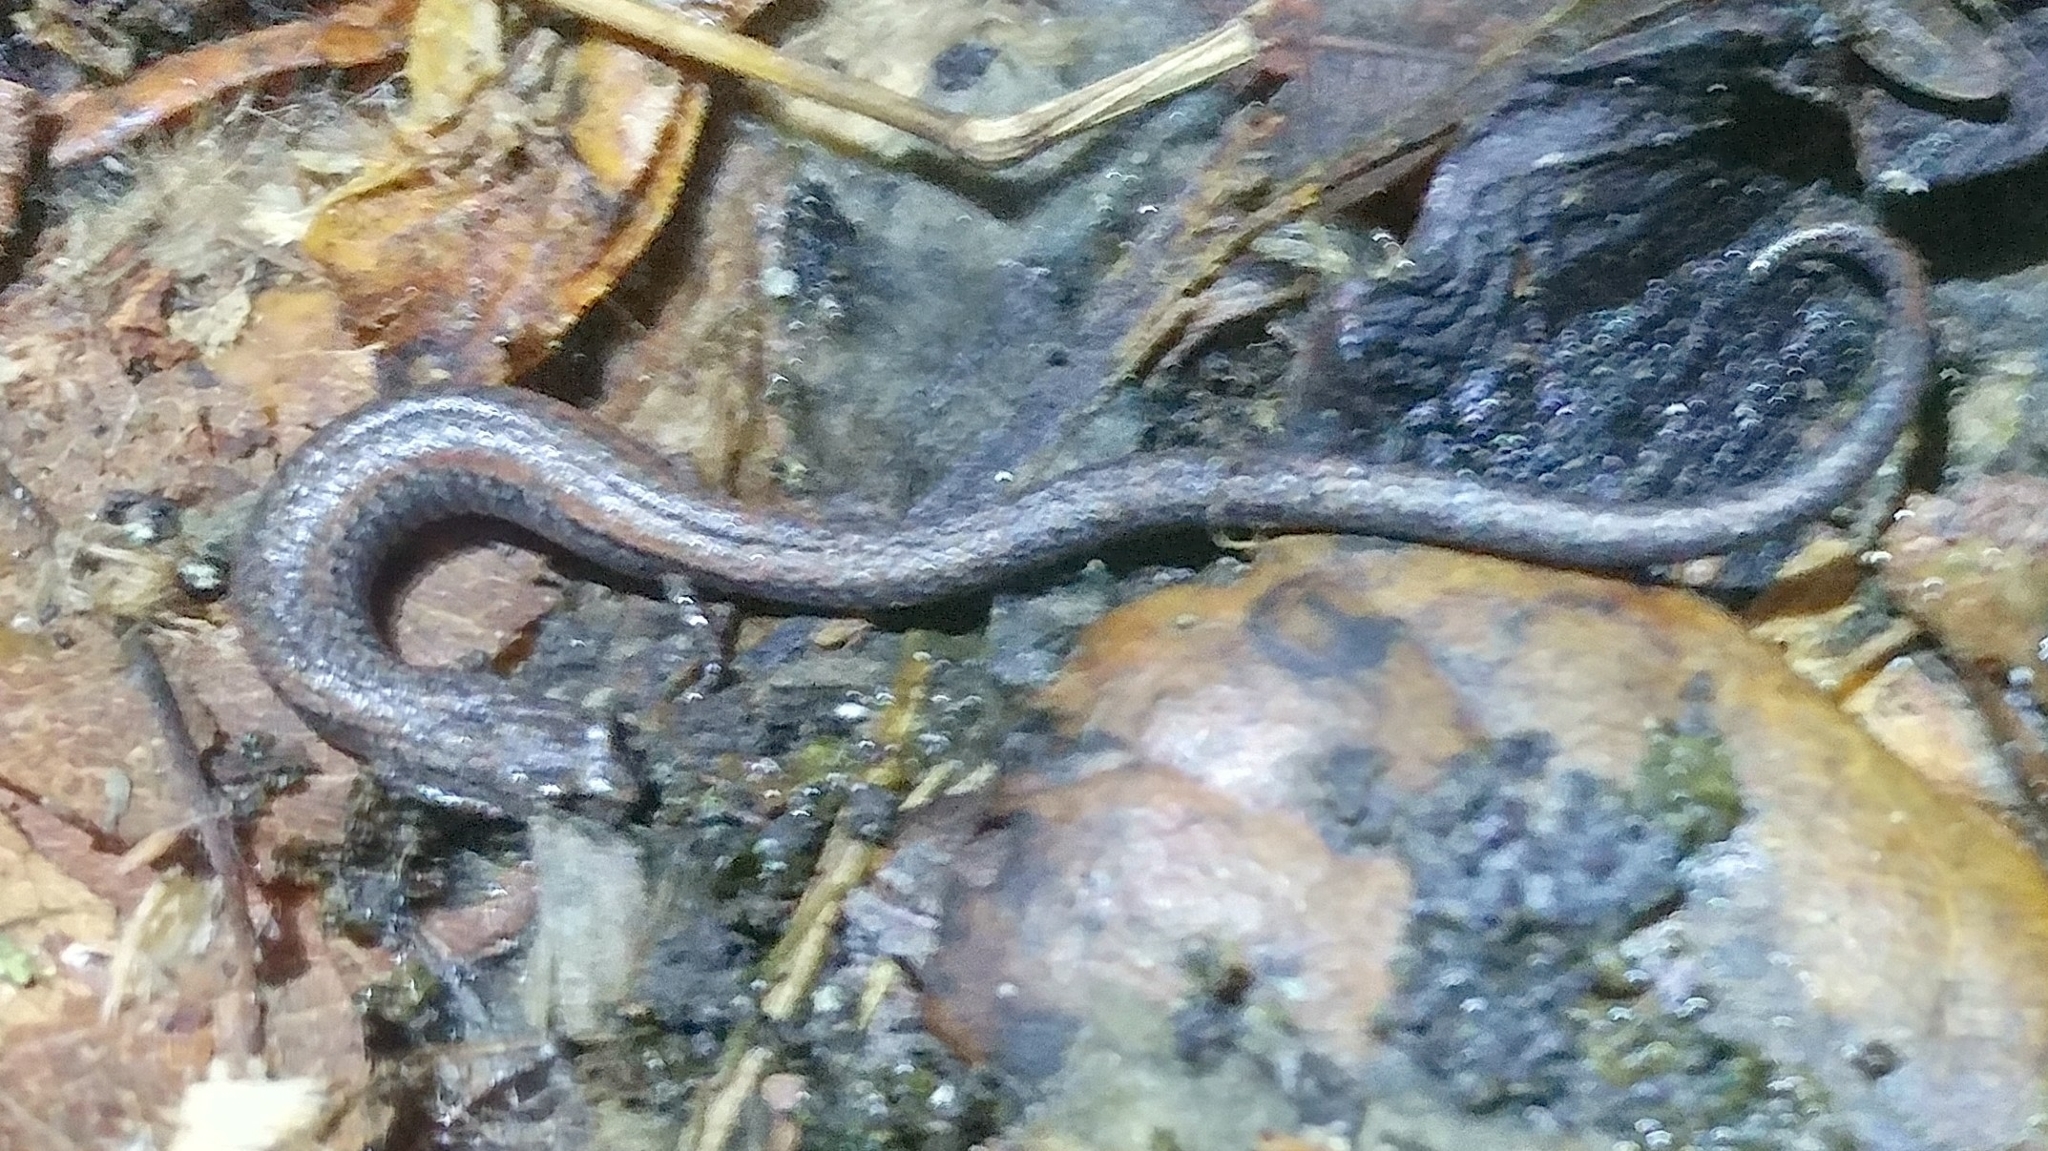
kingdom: Animalia
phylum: Chordata
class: Amphibia
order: Caudata
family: Plethodontidae
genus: Batrachoseps
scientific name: Batrachoseps nigriventris
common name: Black-bellied slender salamander
